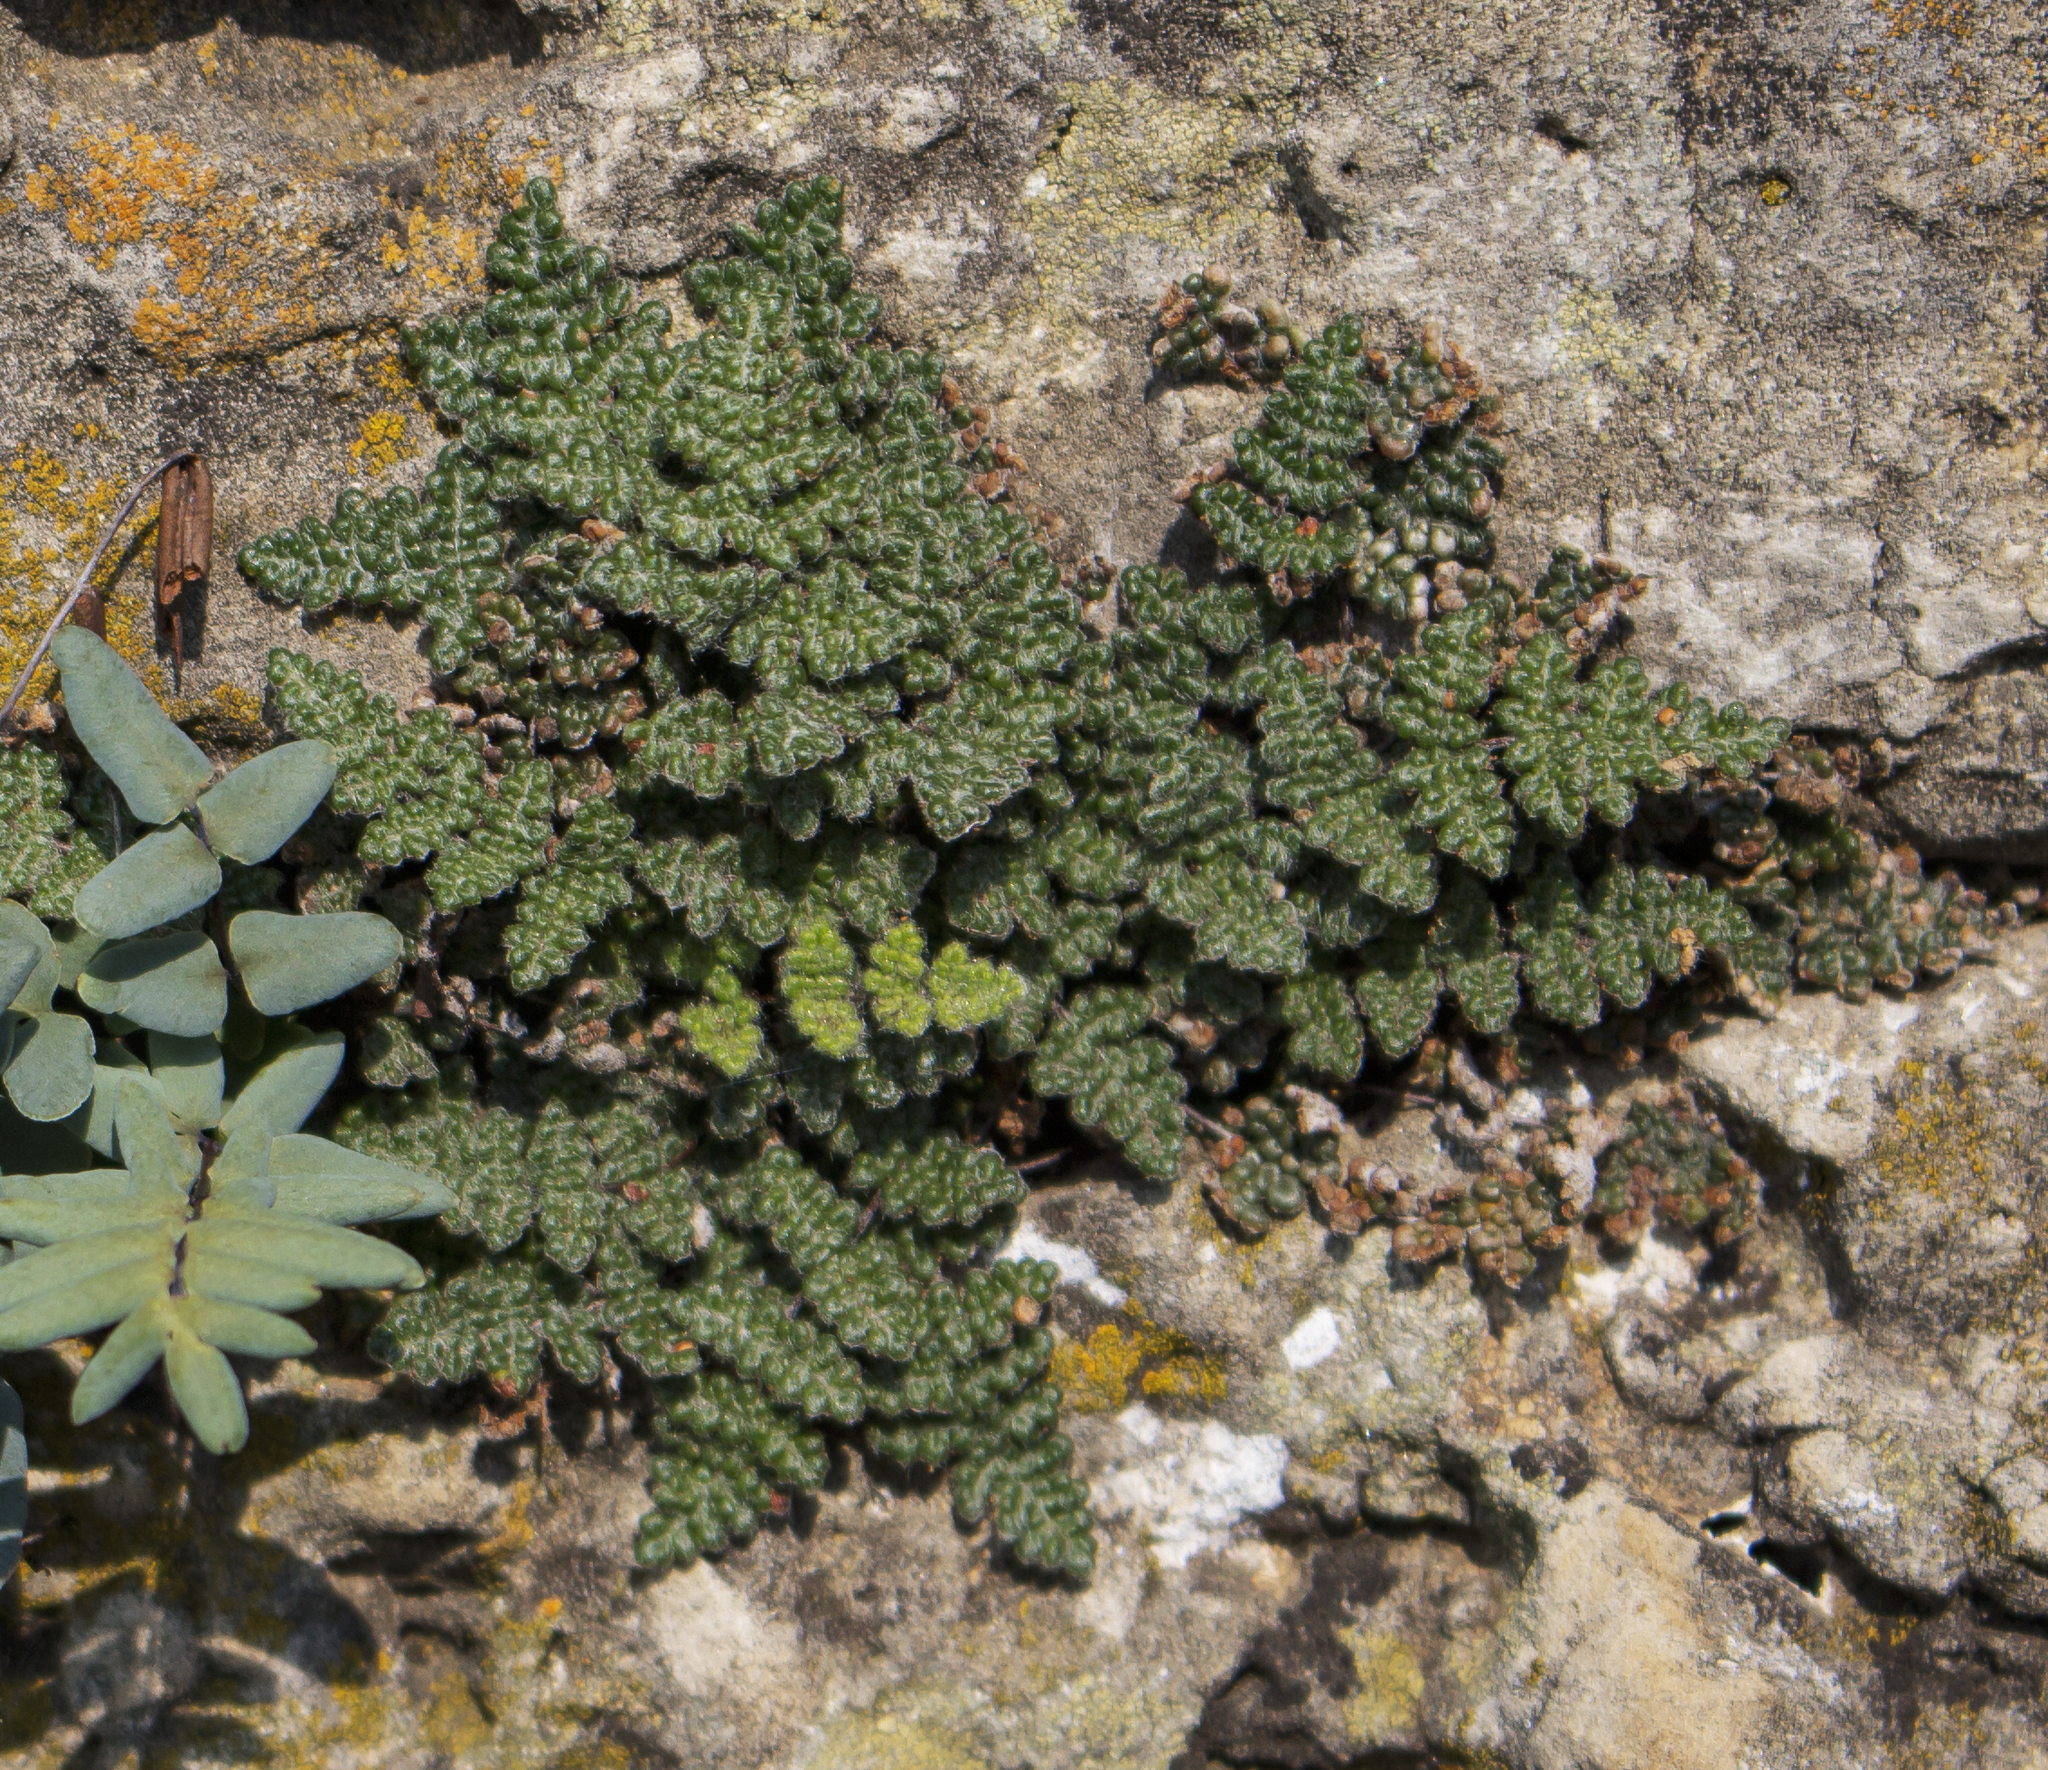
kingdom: Plantae
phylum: Tracheophyta
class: Polypodiopsida
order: Polypodiales
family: Pteridaceae
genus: Myriopteris
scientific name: Myriopteris gracilis
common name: Fee's lip fern
